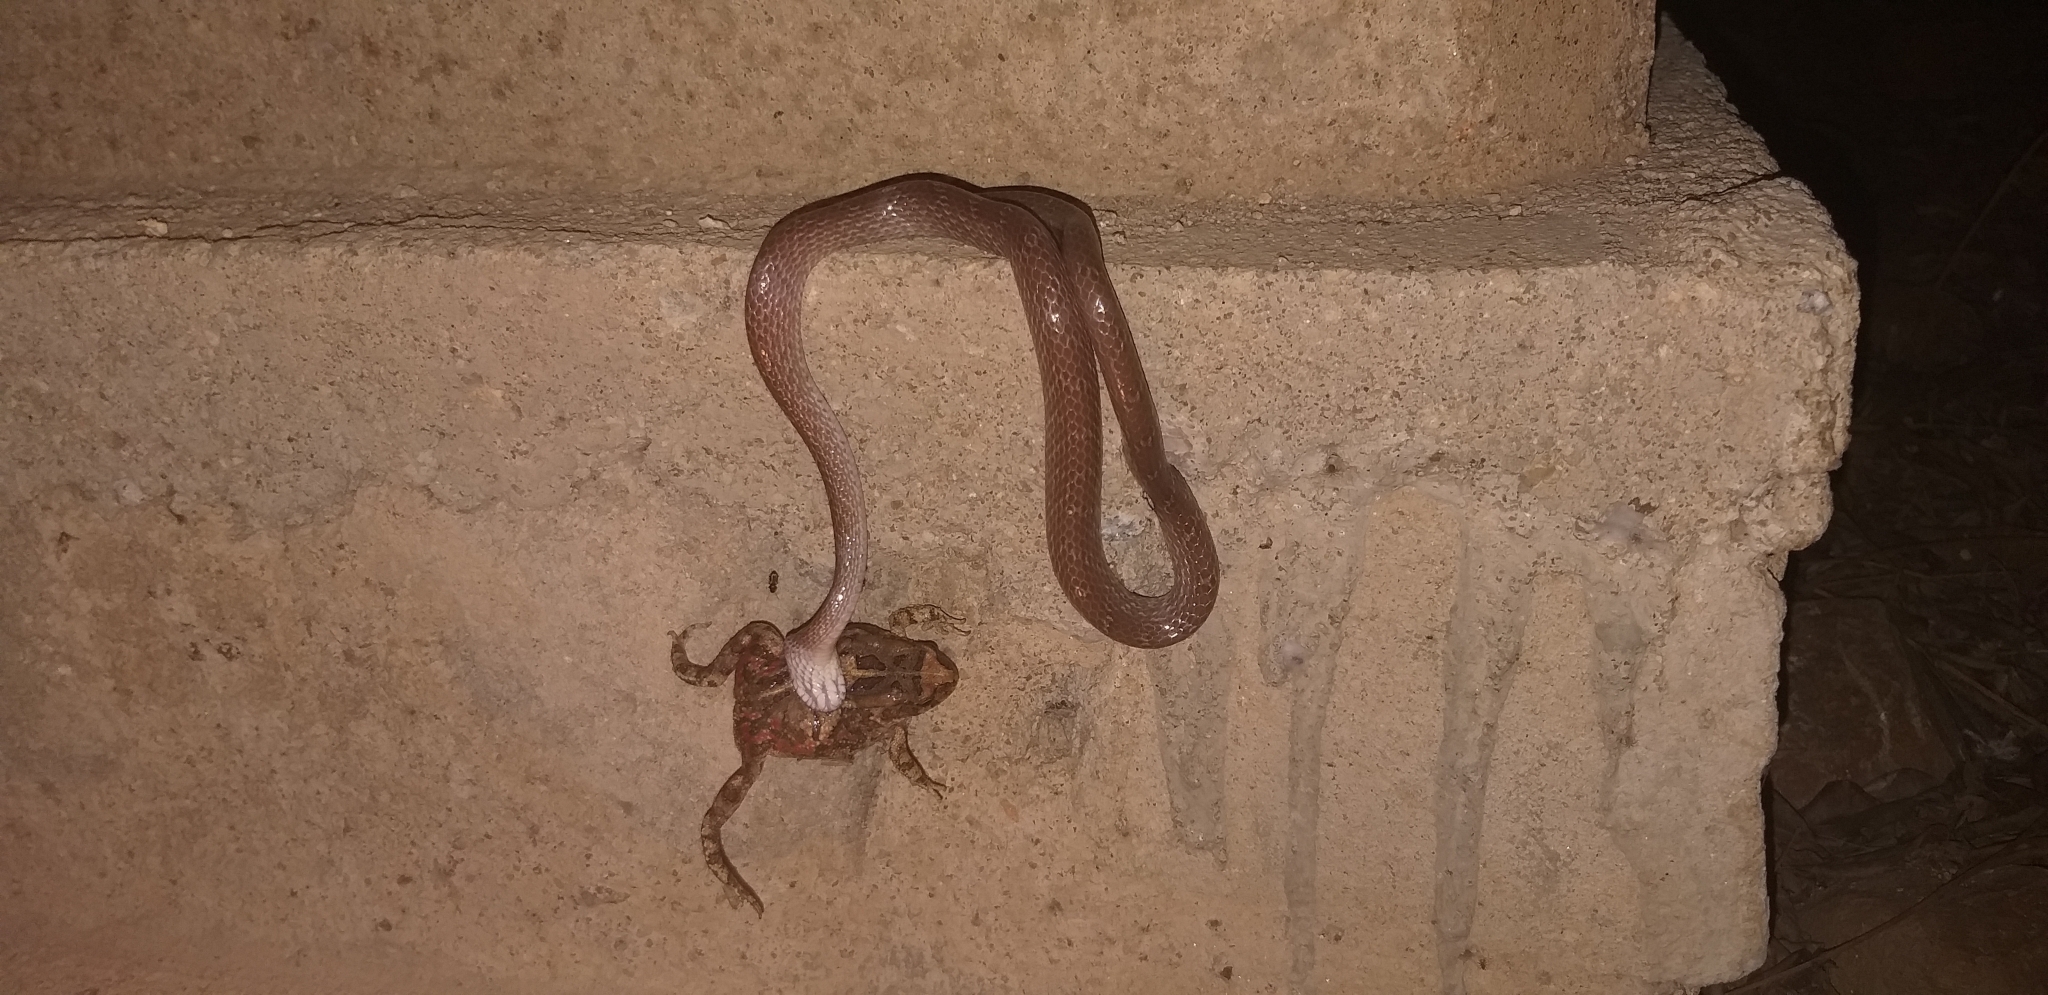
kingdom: Animalia
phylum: Chordata
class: Amphibia
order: Anura
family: Bufonidae
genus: Sclerophrys
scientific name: Sclerophrys garmani
